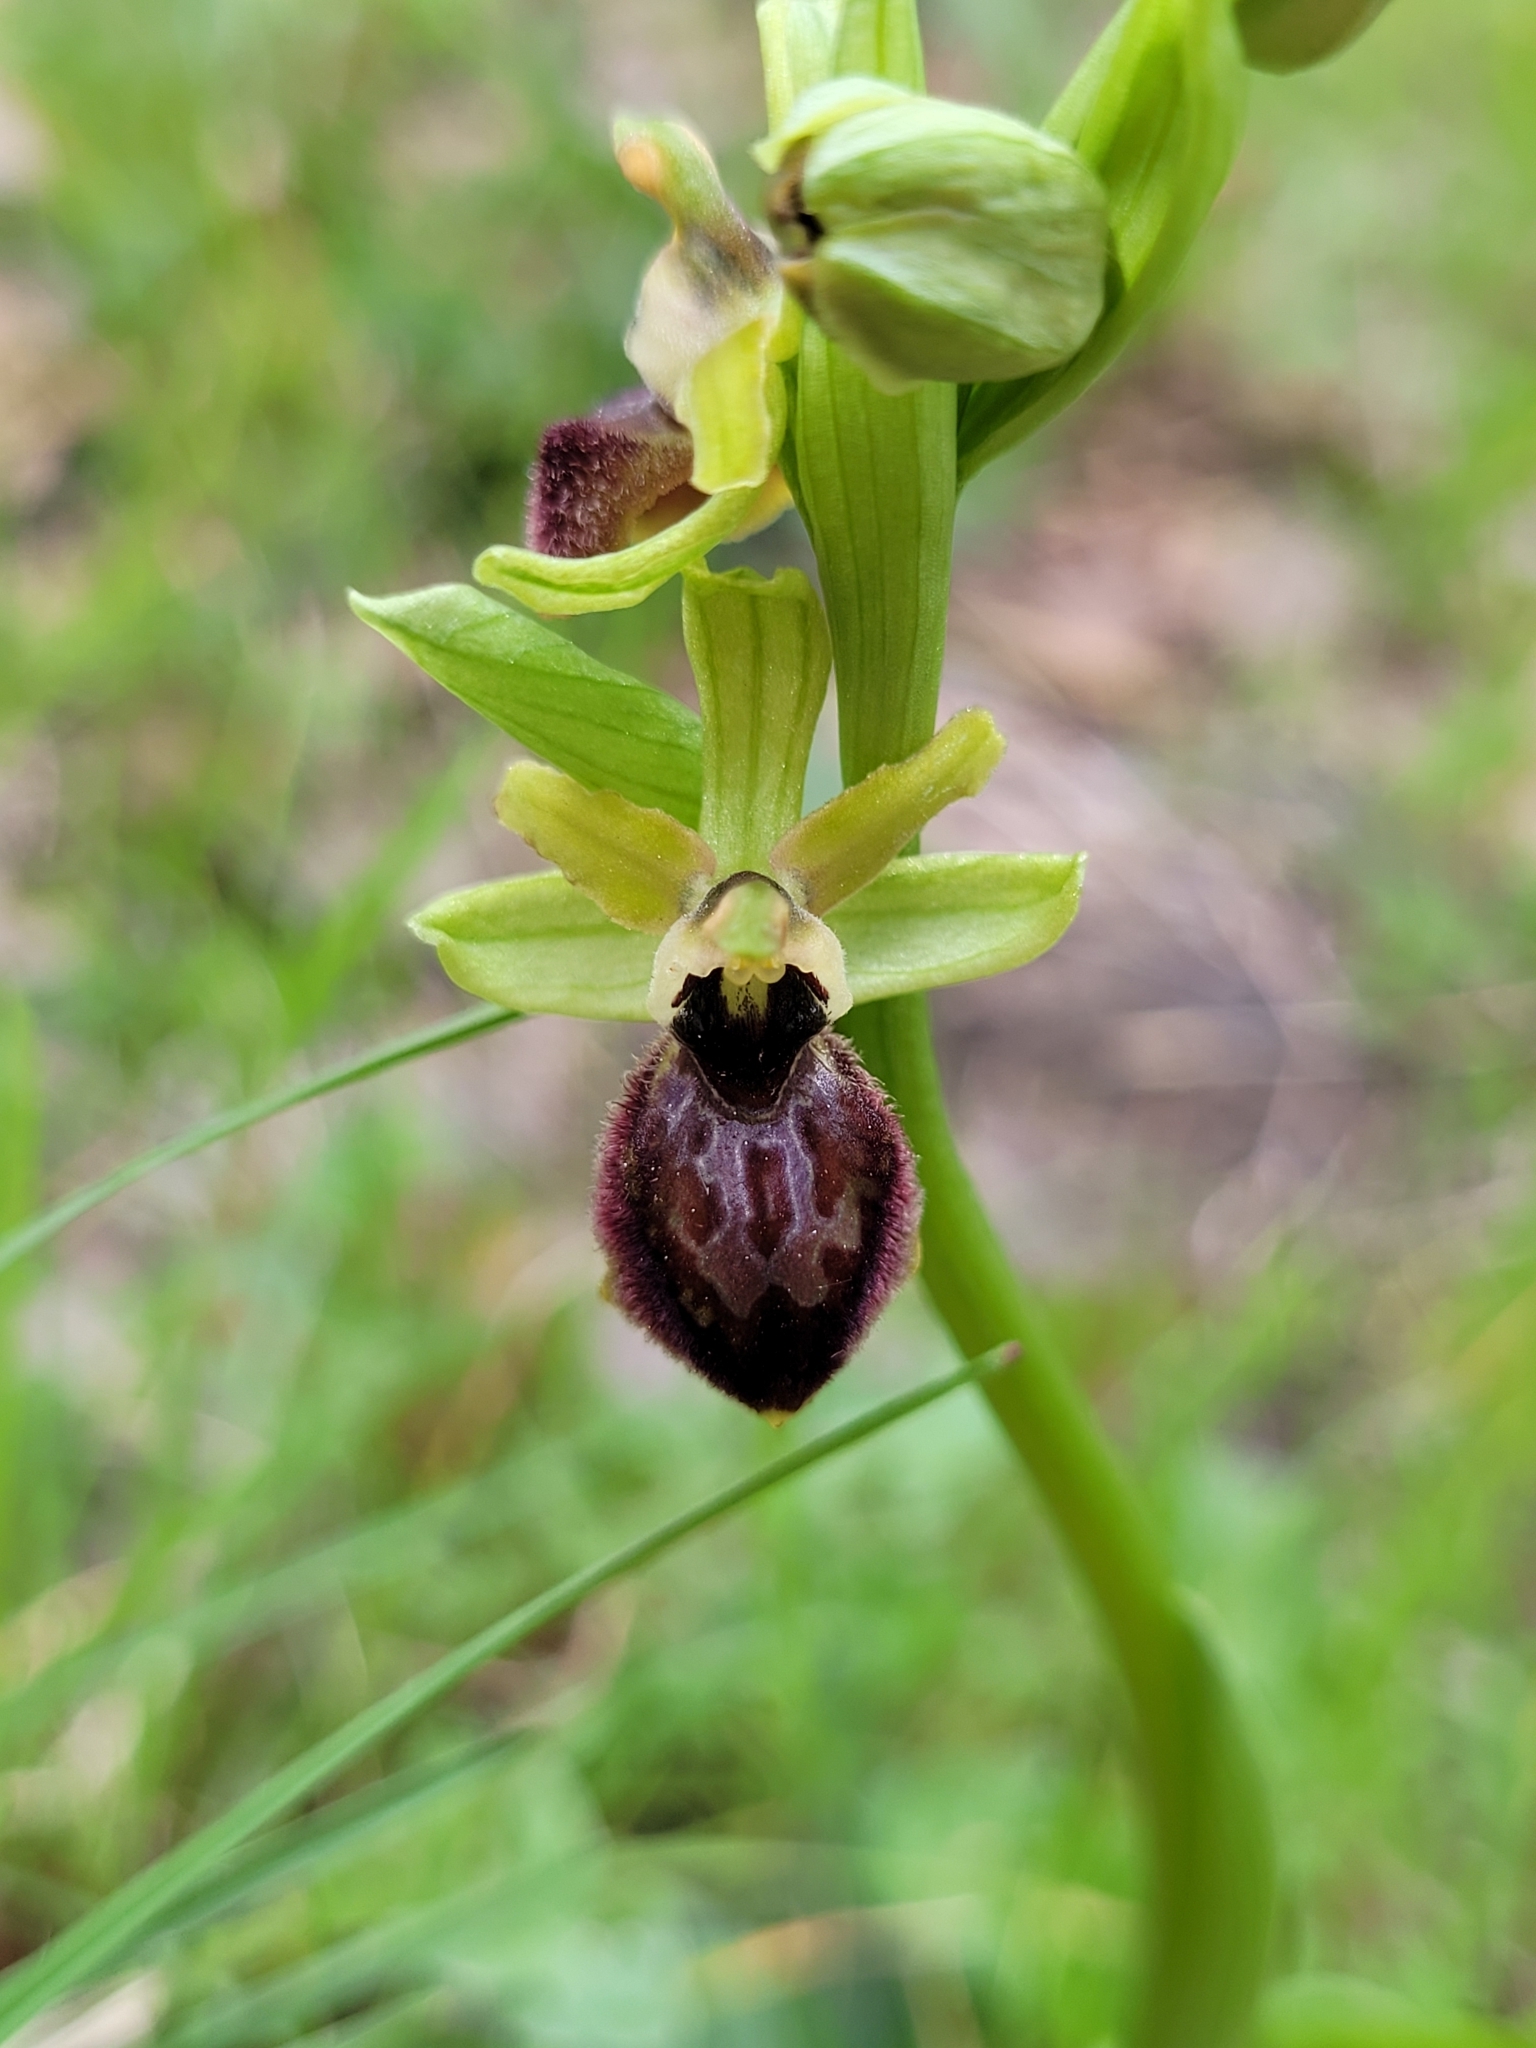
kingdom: Plantae
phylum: Tracheophyta
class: Liliopsida
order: Asparagales
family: Orchidaceae
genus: Ophrys
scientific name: Ophrys arachnitiformis
